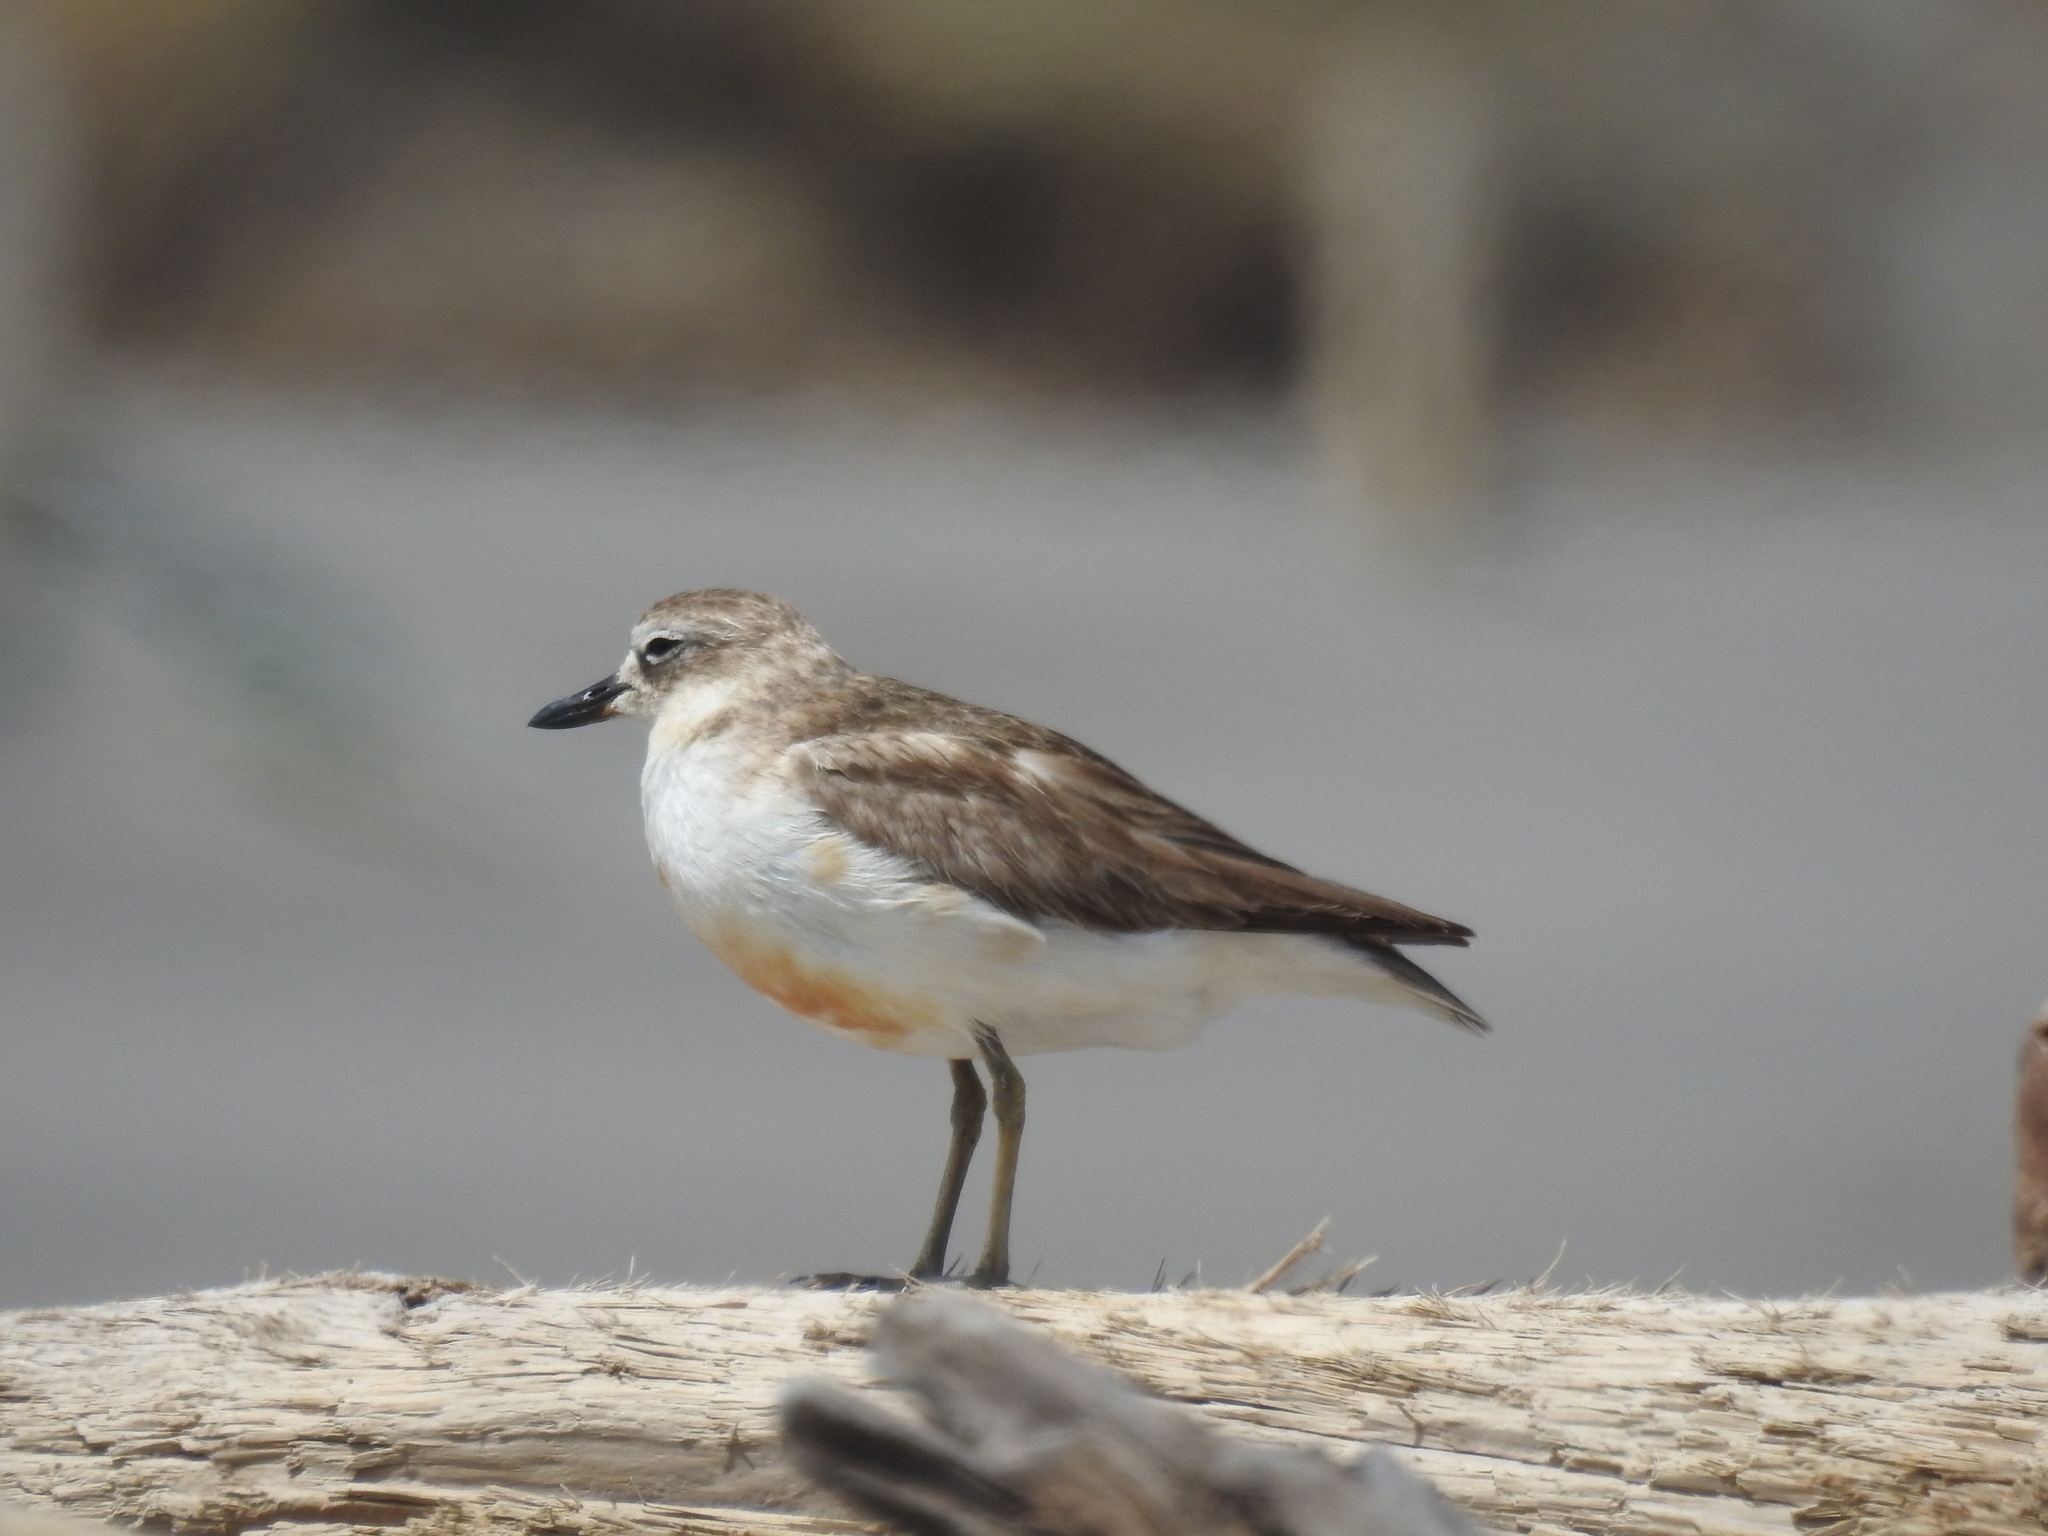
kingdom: Animalia
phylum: Chordata
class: Aves
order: Charadriiformes
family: Charadriidae
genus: Anarhynchus
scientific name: Anarhynchus
